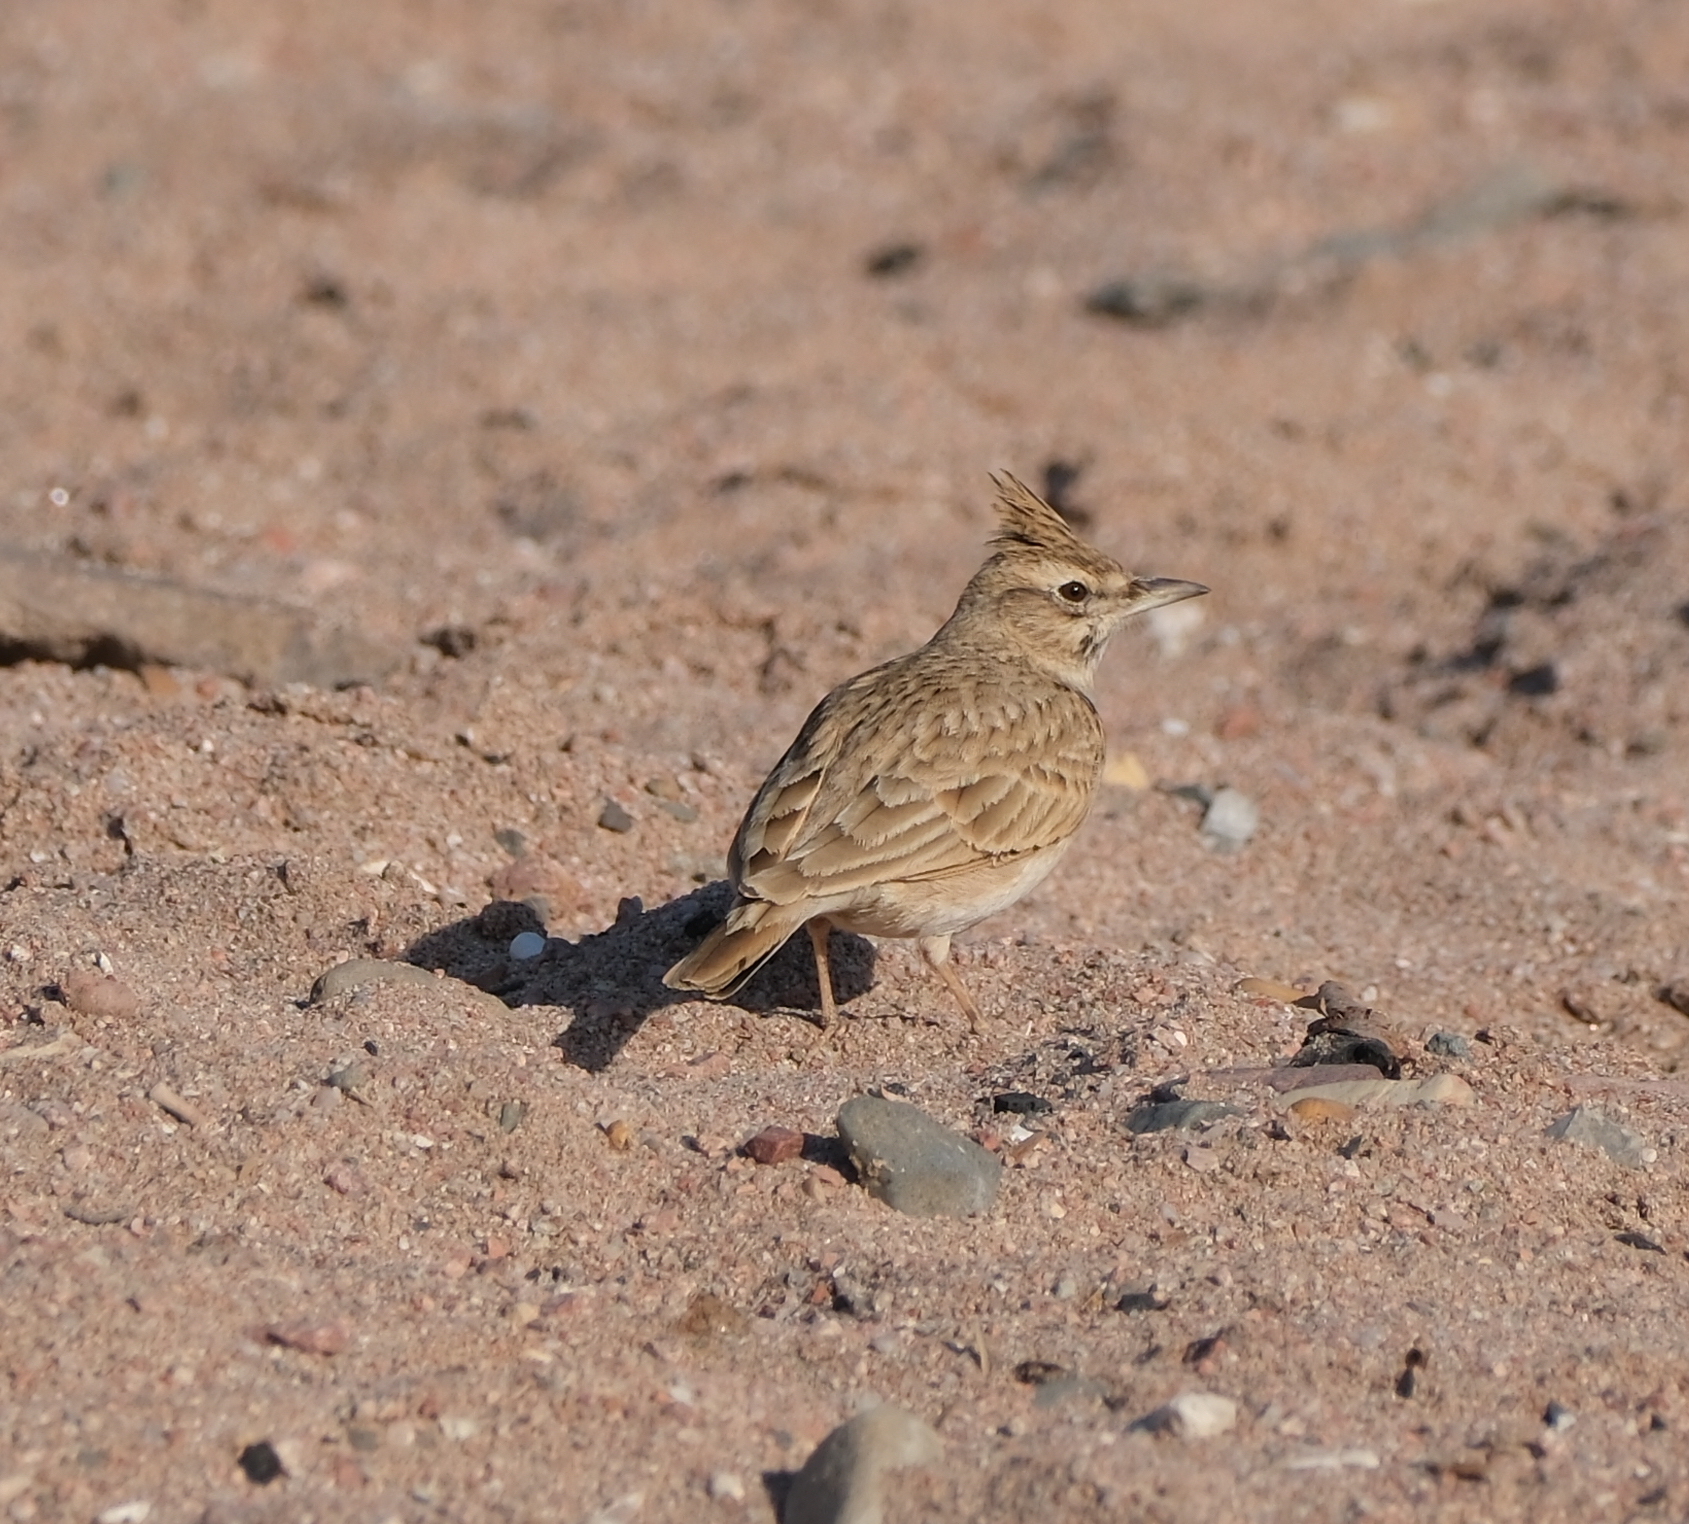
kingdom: Animalia
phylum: Chordata
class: Aves
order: Passeriformes
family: Alaudidae
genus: Galerida
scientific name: Galerida cristata
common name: Crested lark
